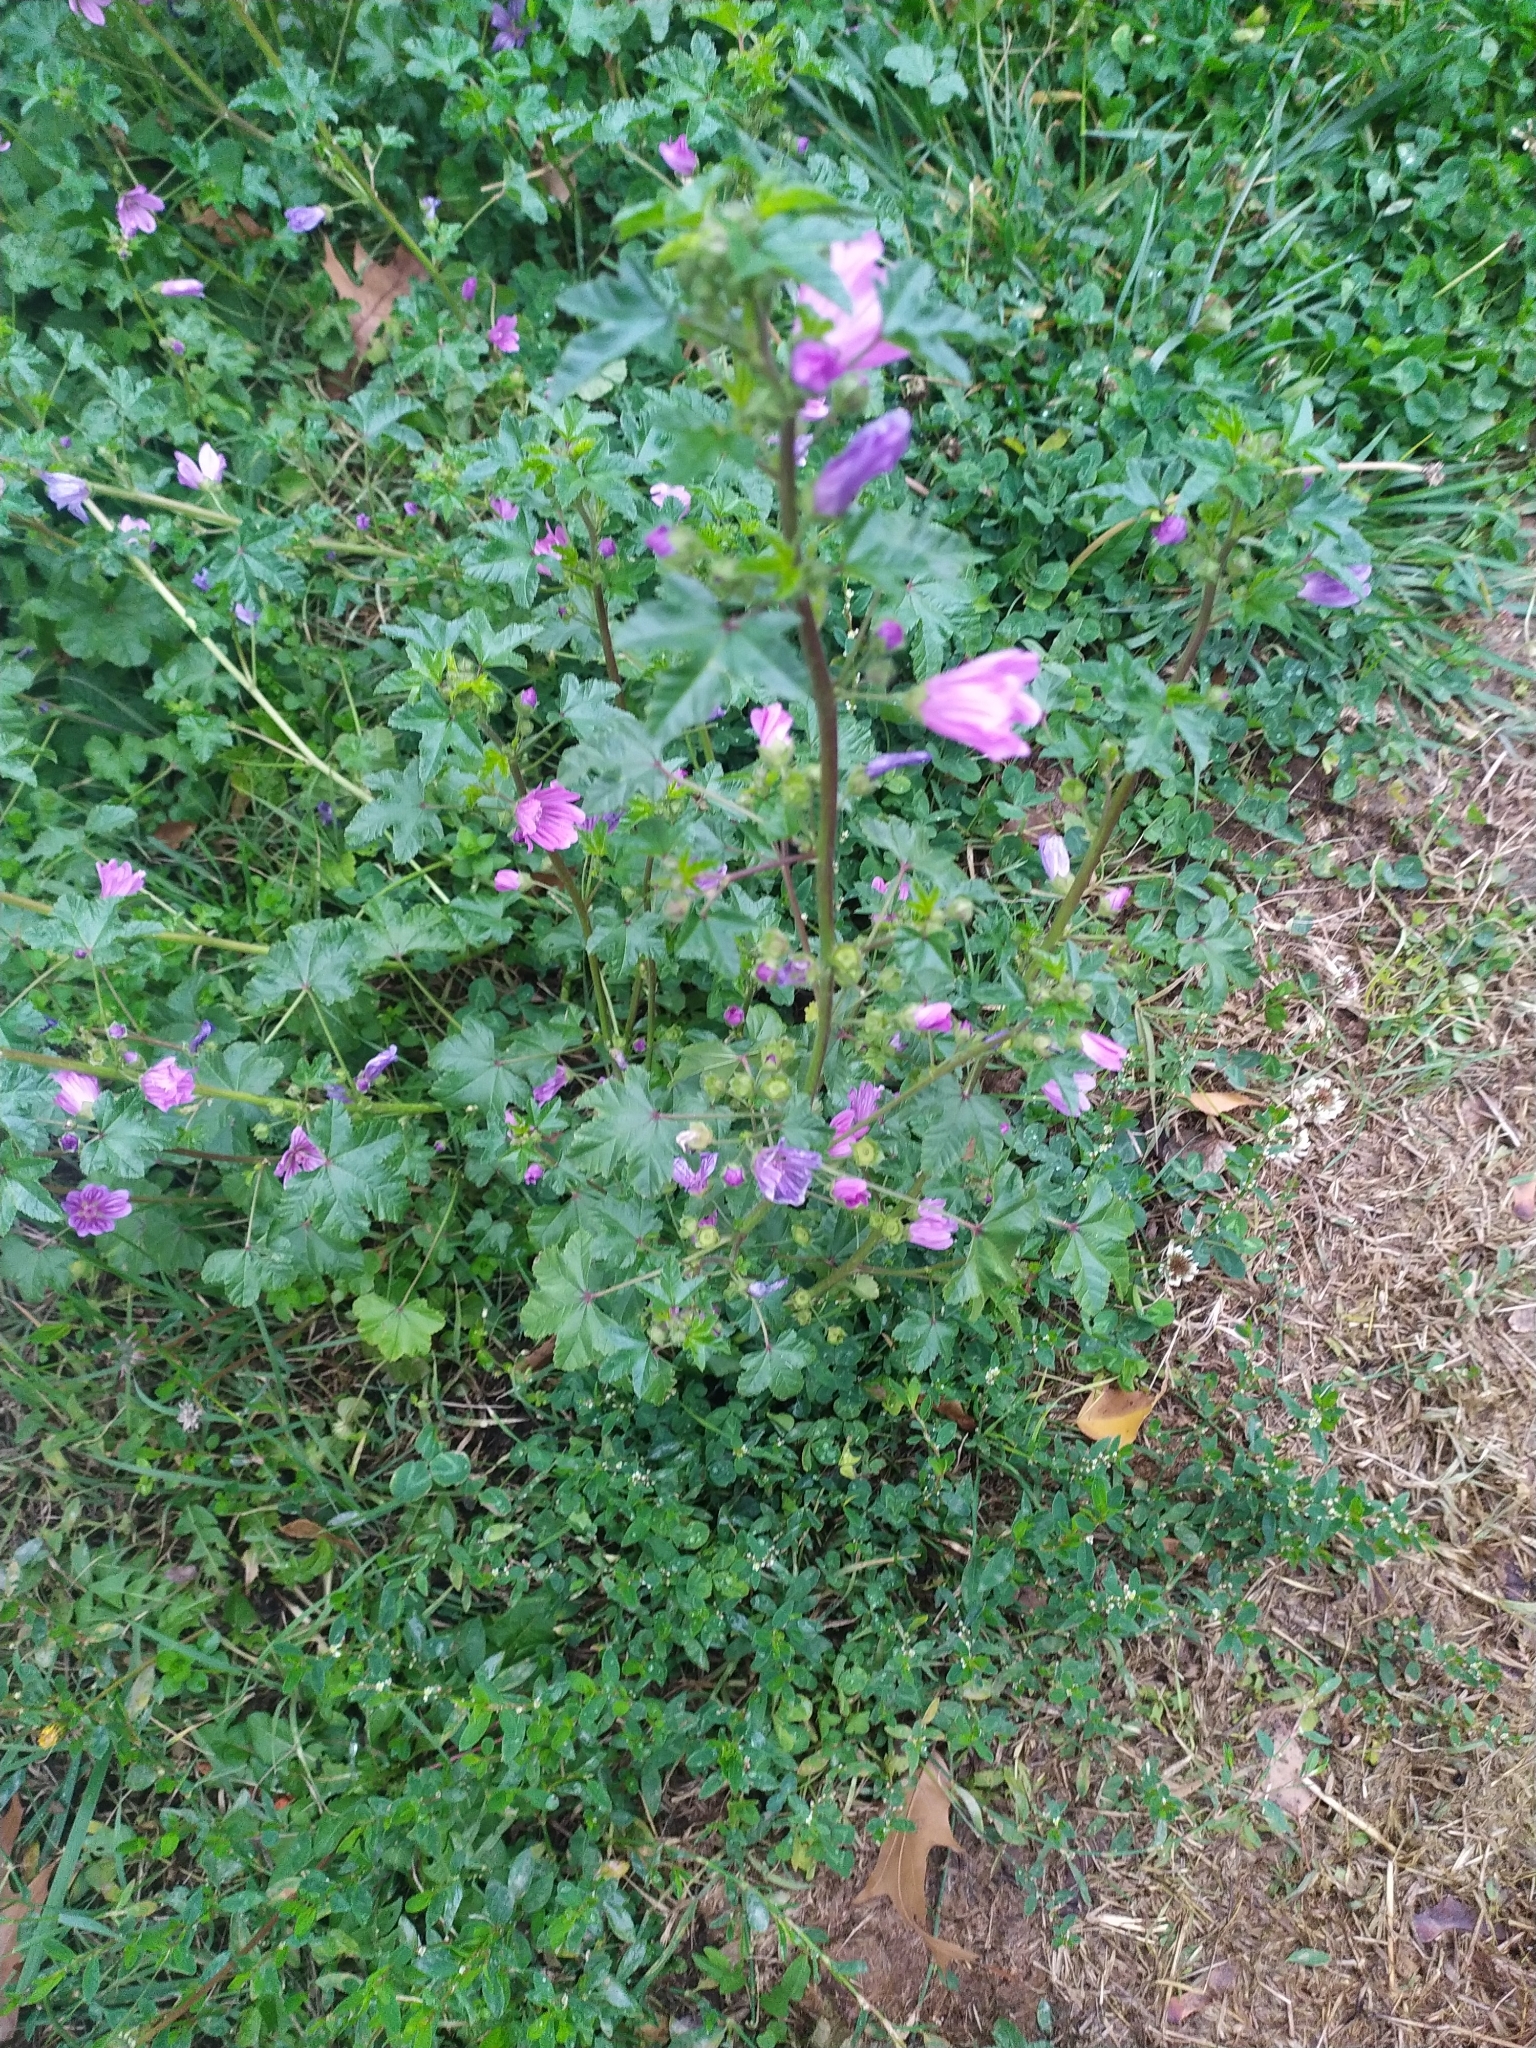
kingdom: Plantae
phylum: Tracheophyta
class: Magnoliopsida
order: Malvales
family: Malvaceae
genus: Malva
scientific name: Malva sylvestris
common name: Common mallow
